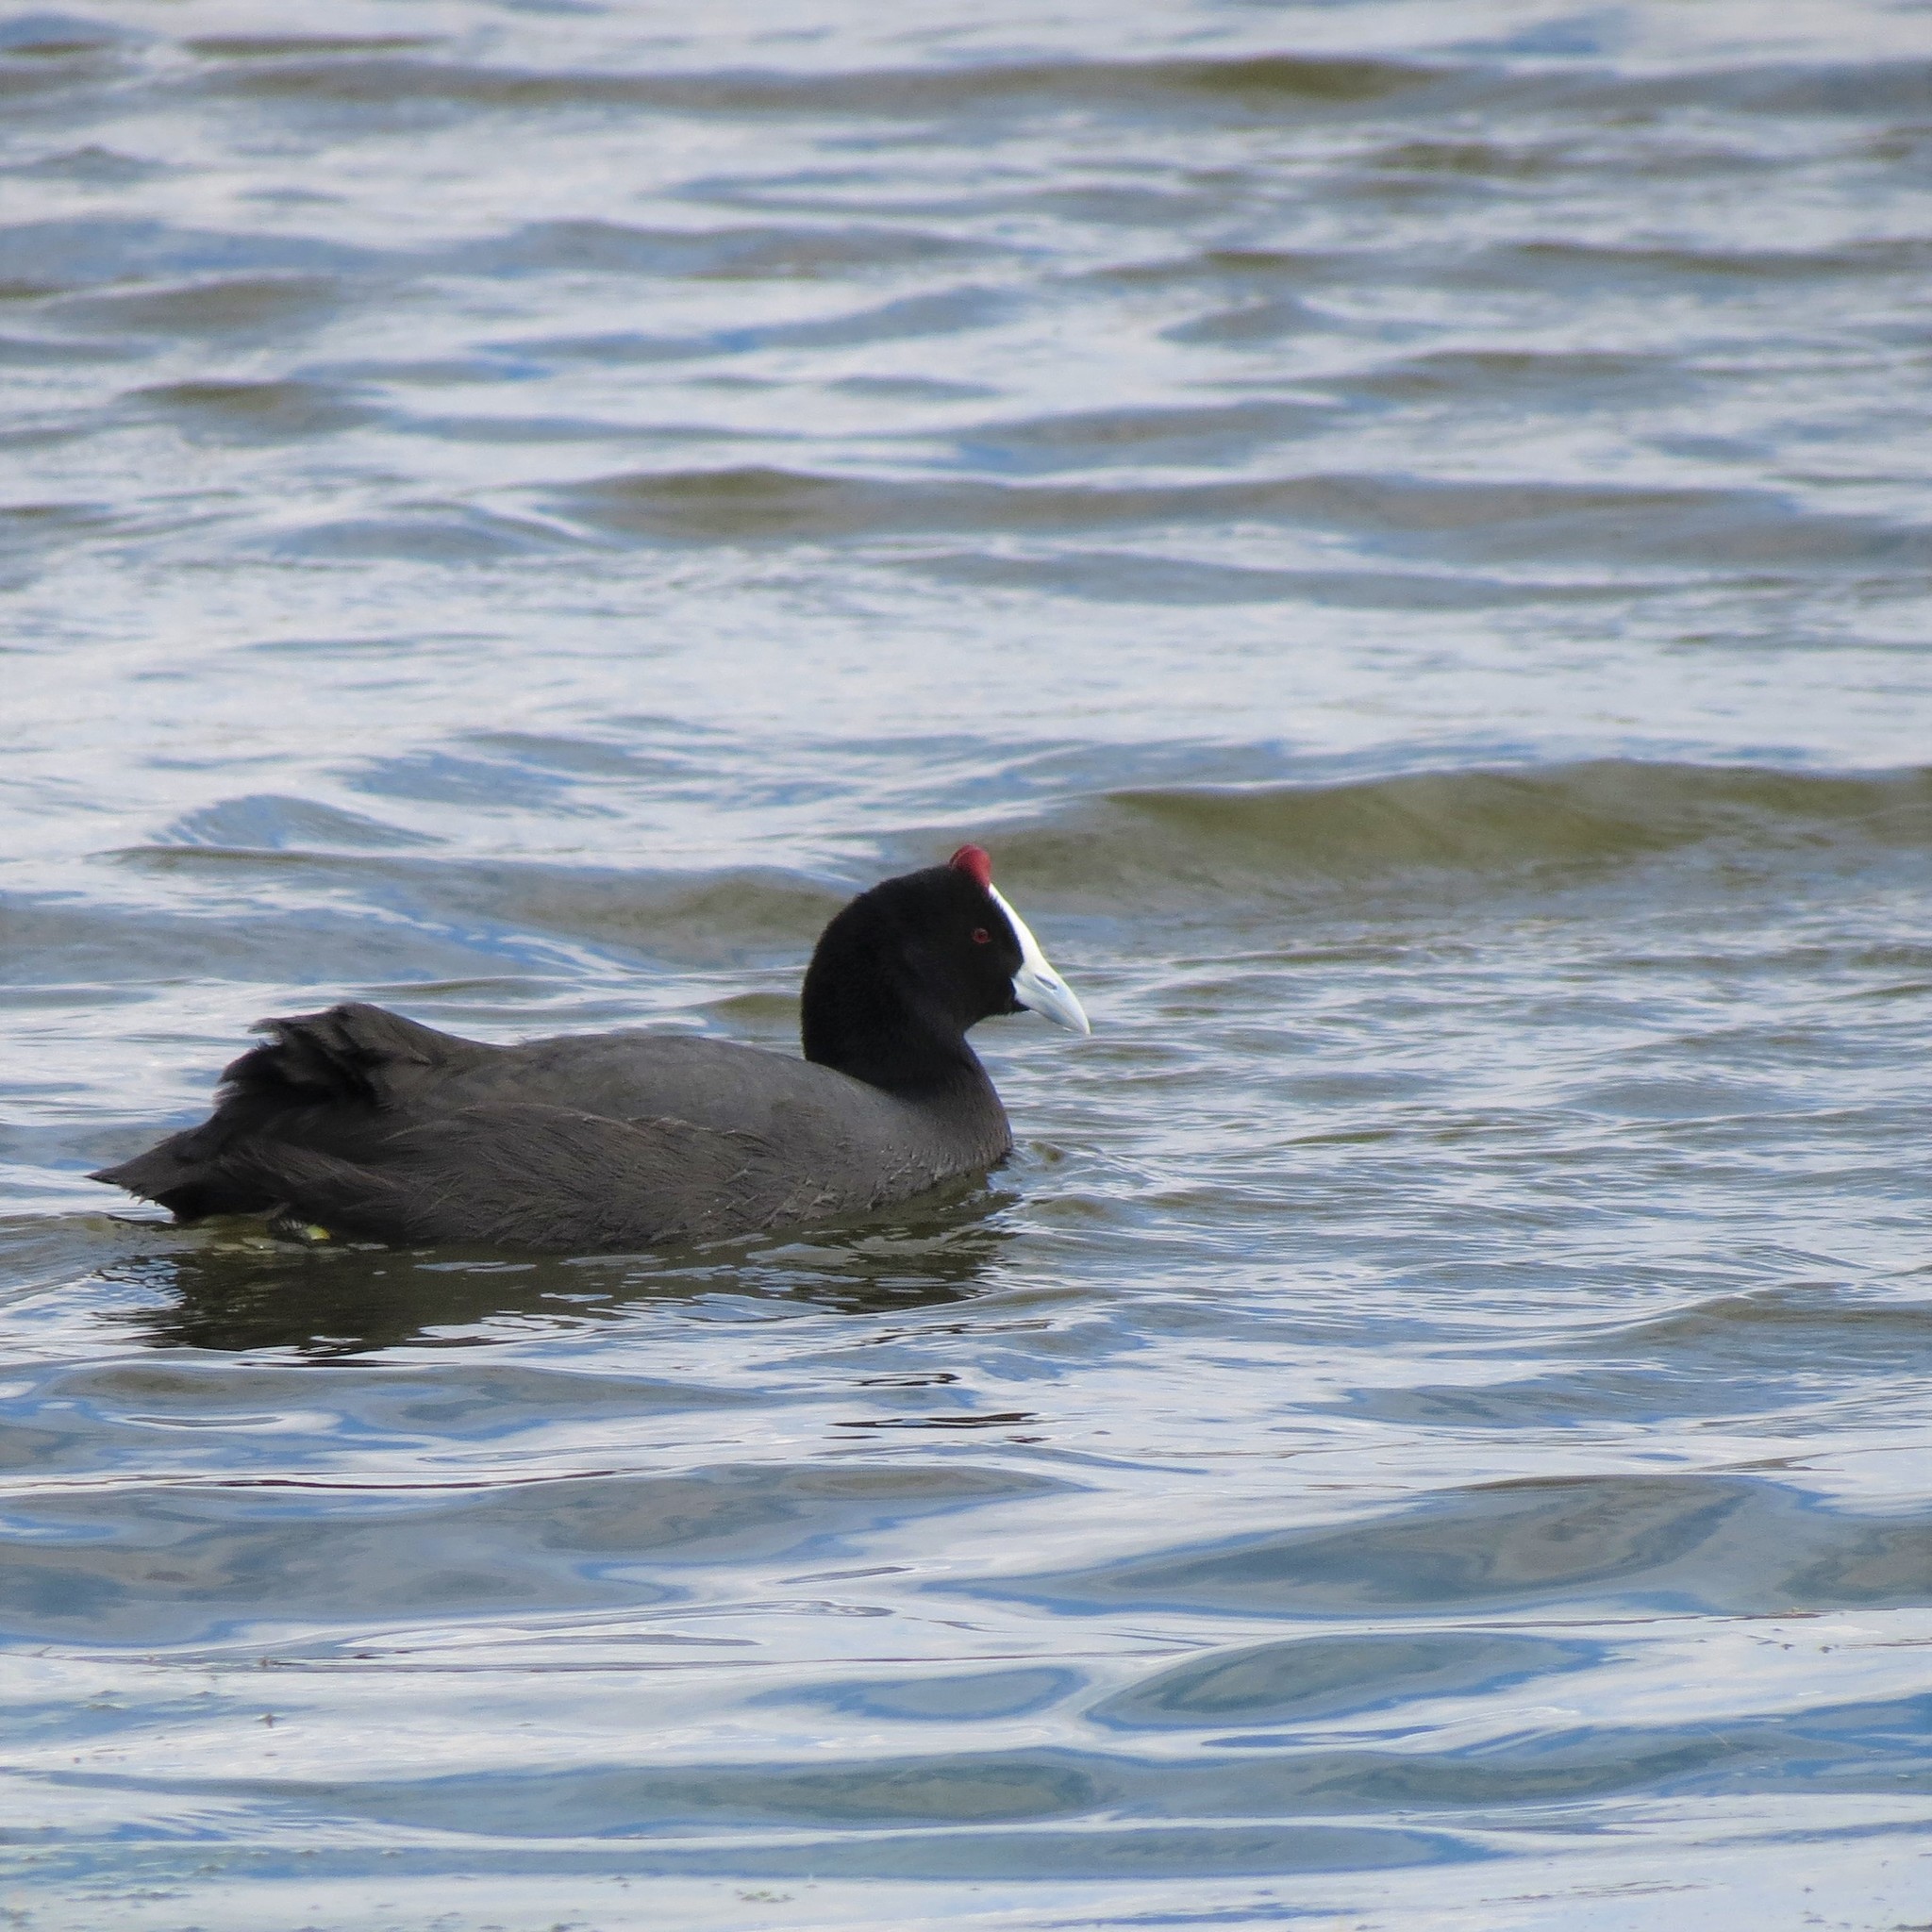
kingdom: Animalia
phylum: Chordata
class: Aves
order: Gruiformes
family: Rallidae
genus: Fulica
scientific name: Fulica cristata
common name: Red-knobbed coot
